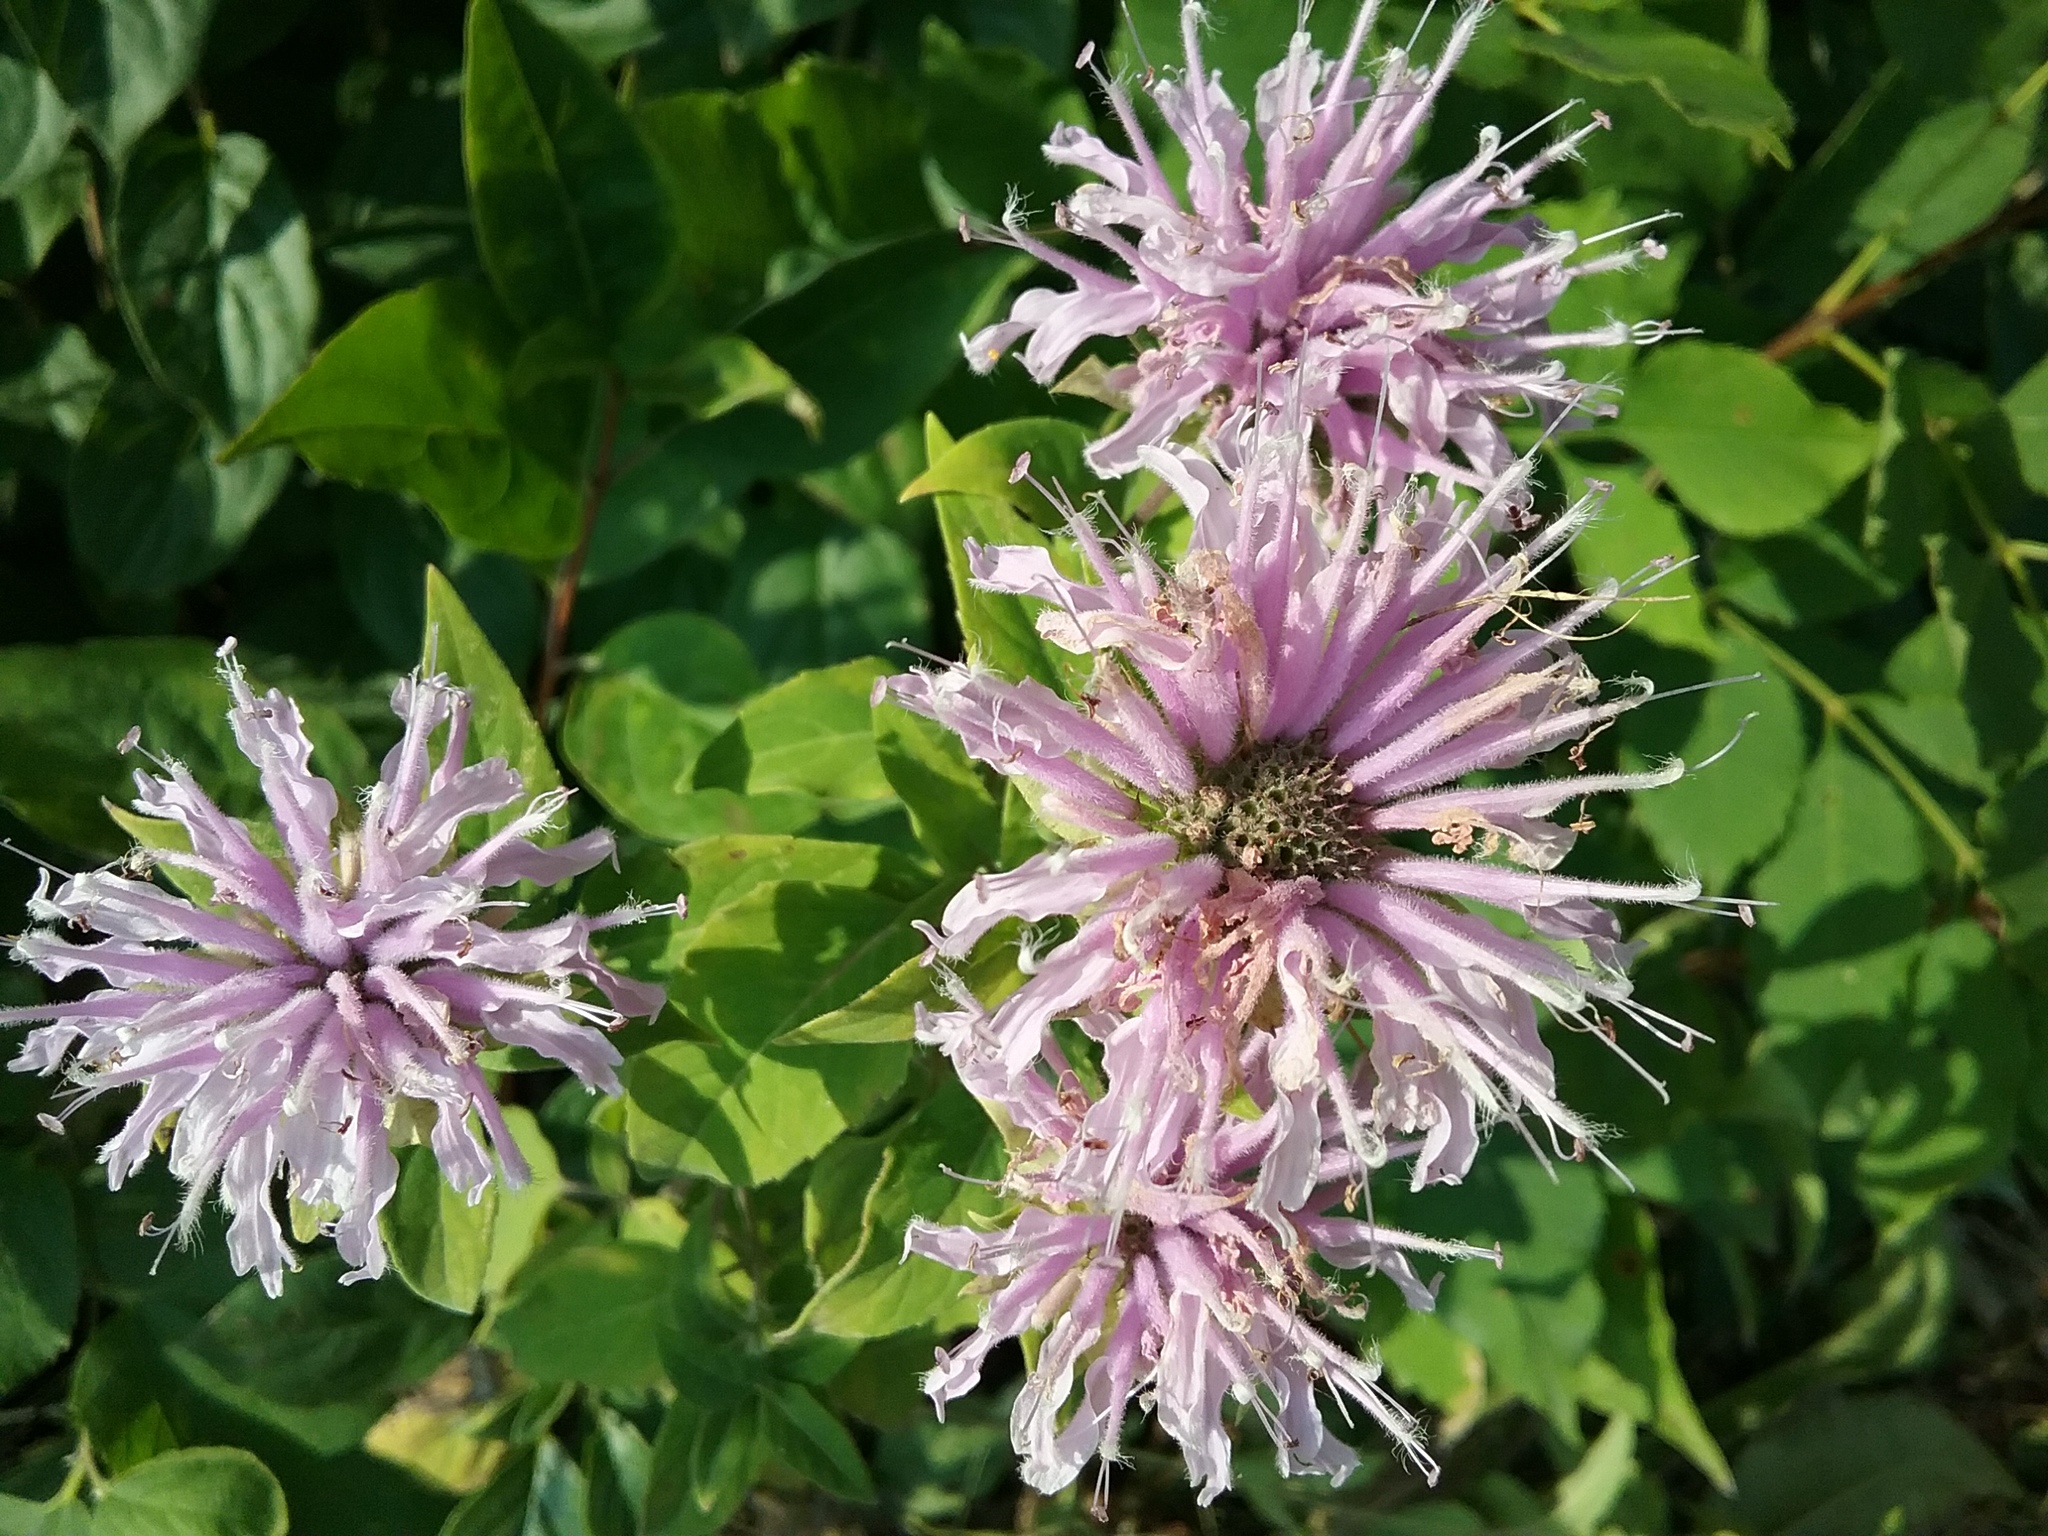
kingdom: Plantae
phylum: Tracheophyta
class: Magnoliopsida
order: Lamiales
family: Lamiaceae
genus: Monarda
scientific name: Monarda fistulosa
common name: Purple beebalm
